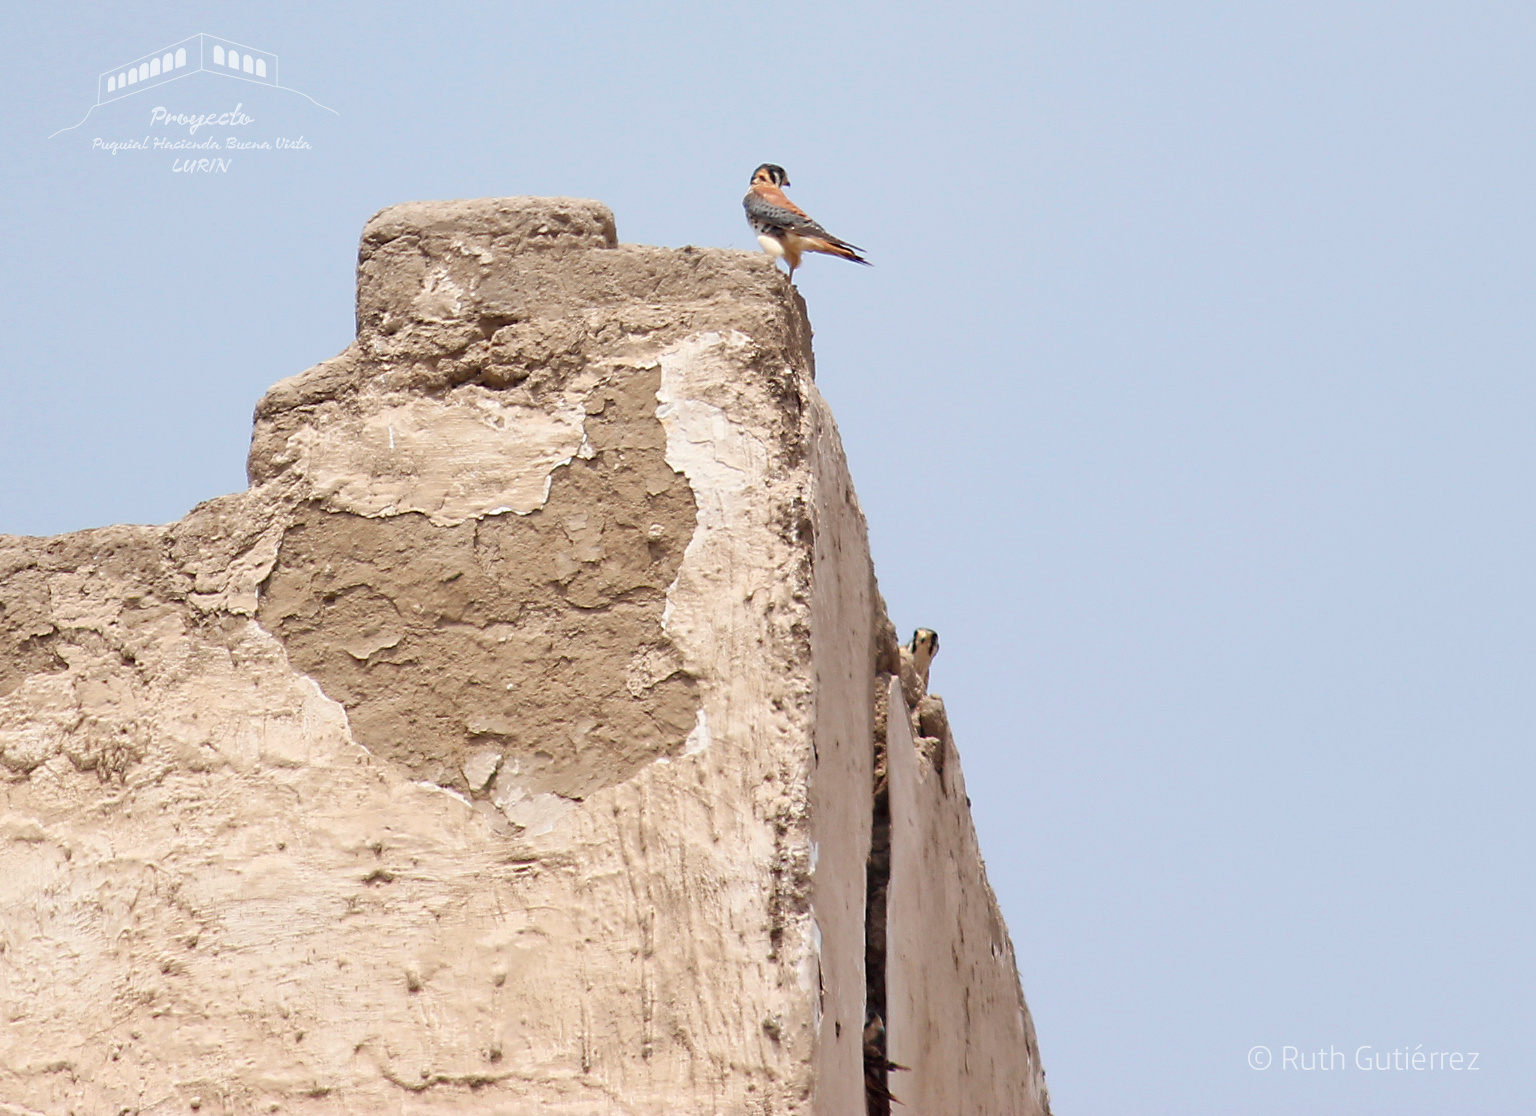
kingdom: Animalia
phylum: Chordata
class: Aves
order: Falconiformes
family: Falconidae
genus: Falco
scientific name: Falco sparverius
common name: American kestrel
